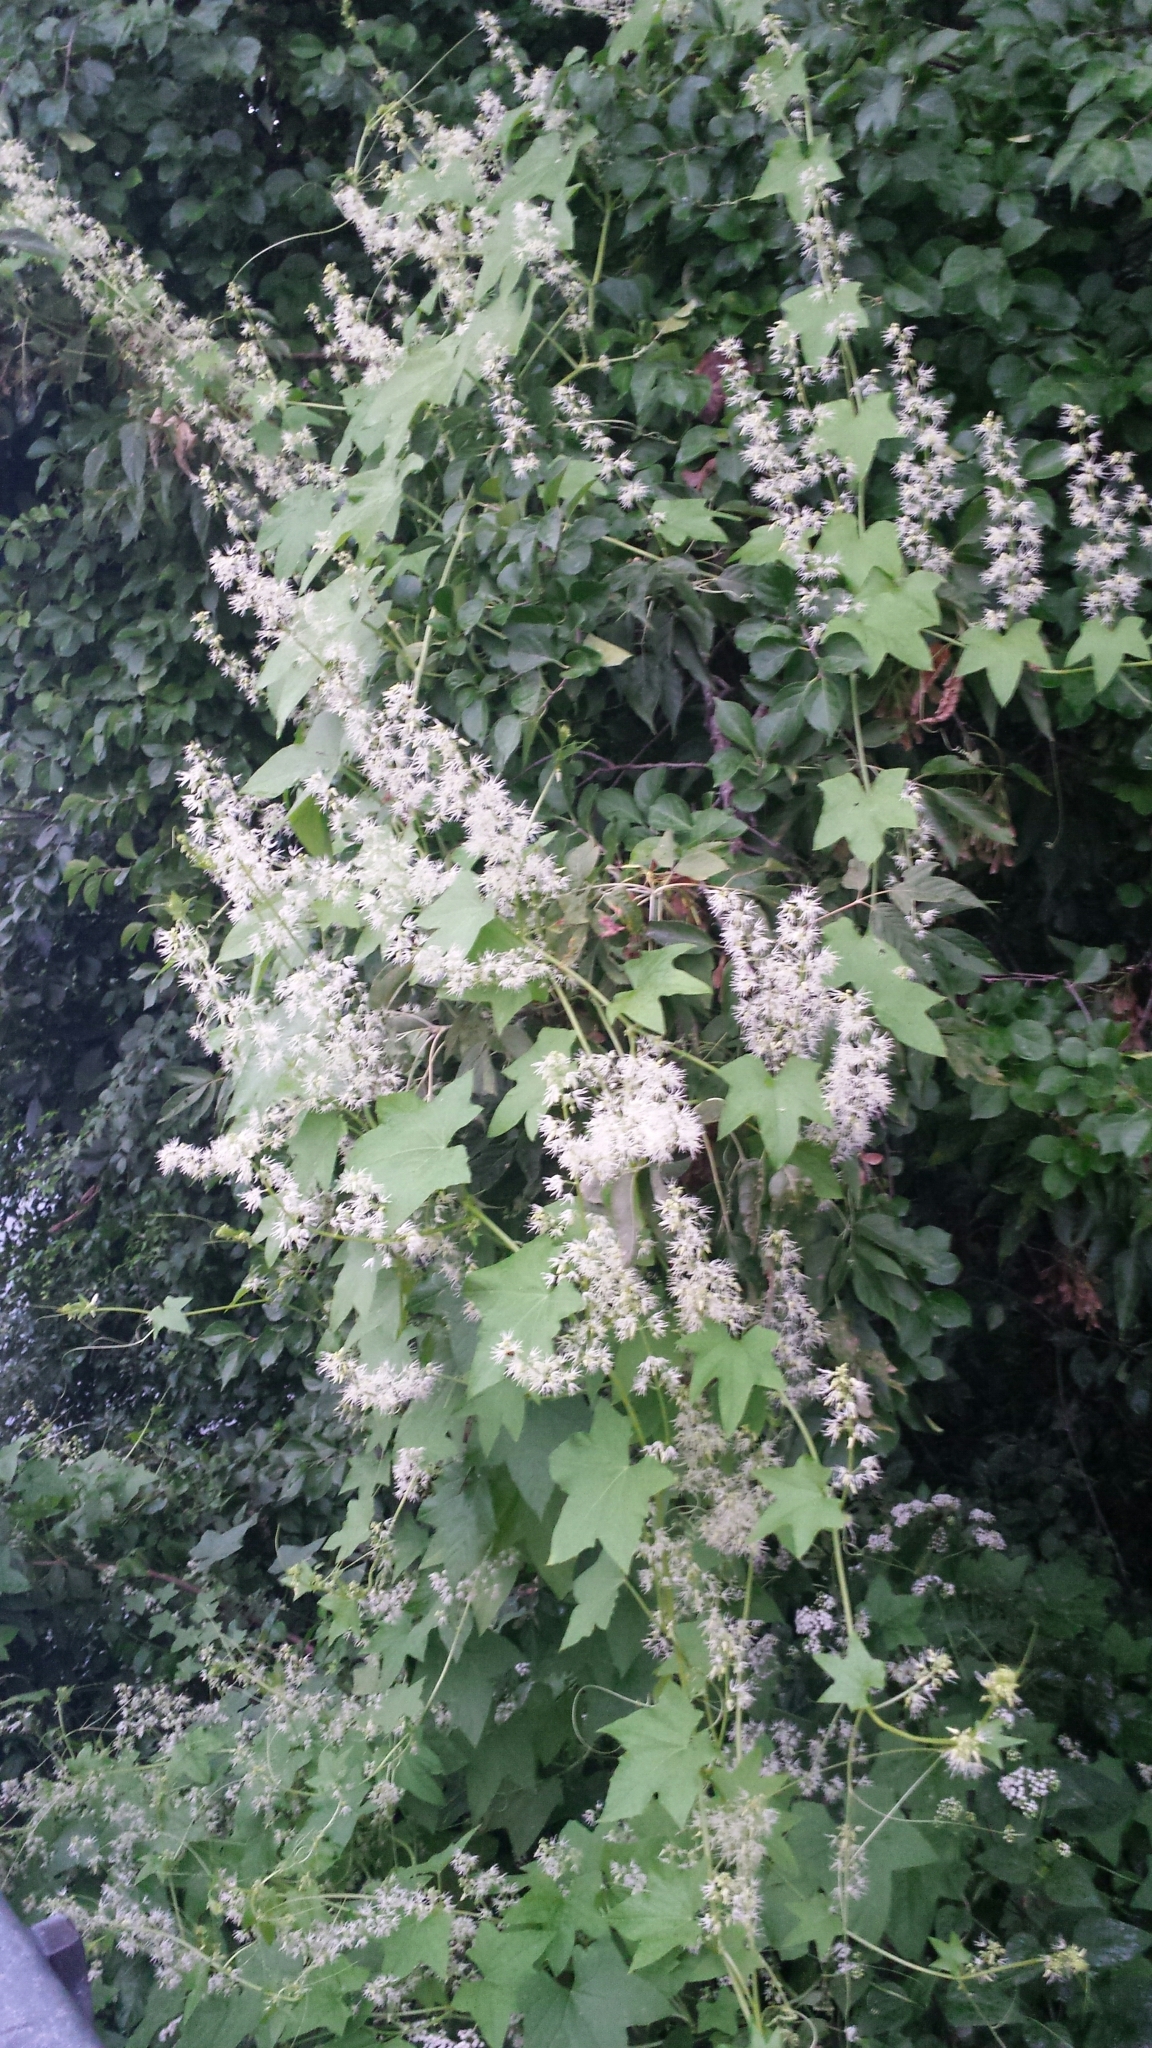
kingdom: Plantae
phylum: Tracheophyta
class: Magnoliopsida
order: Cucurbitales
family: Cucurbitaceae
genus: Echinocystis
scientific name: Echinocystis lobata
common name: Wild cucumber
